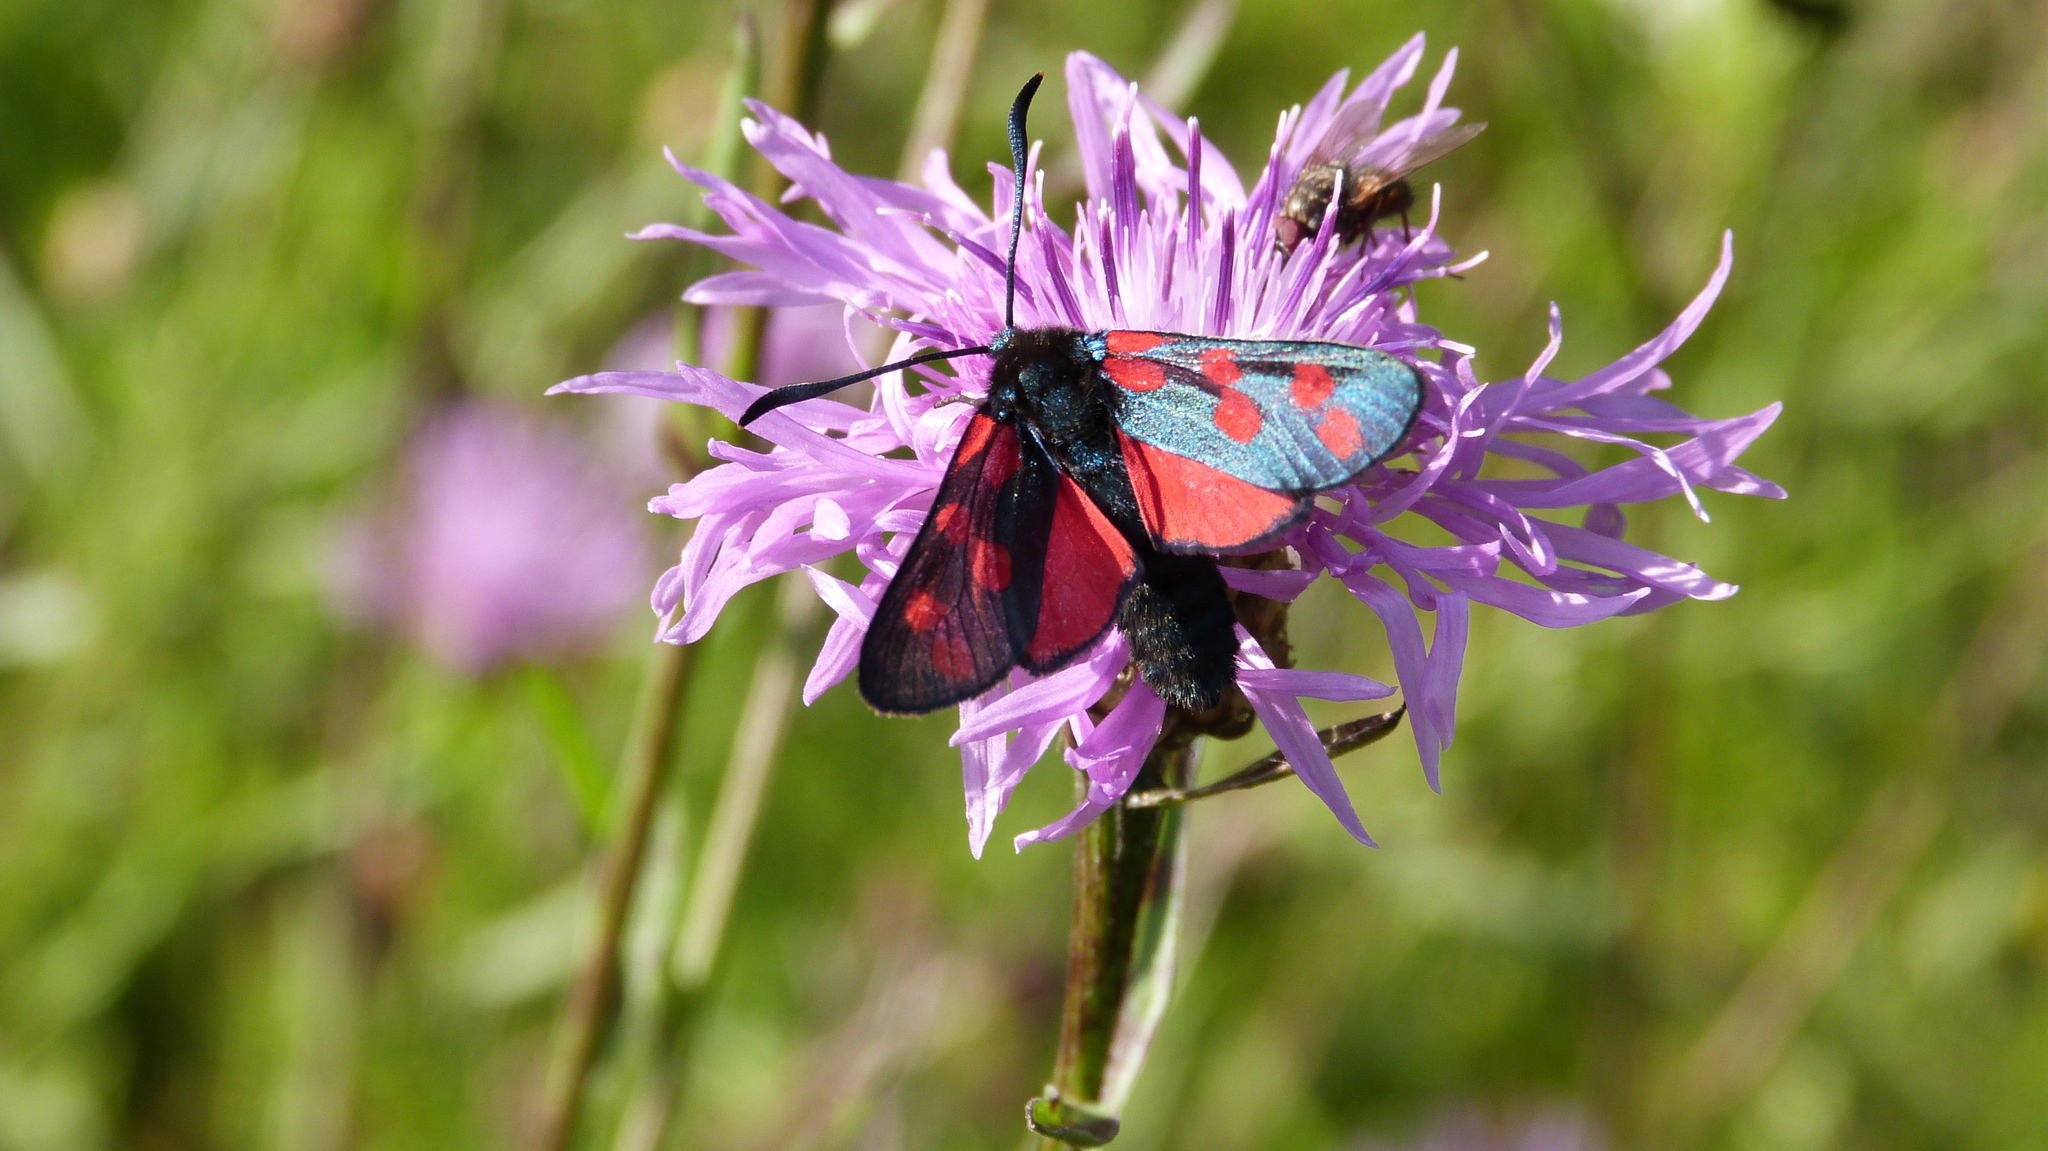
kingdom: Animalia
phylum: Arthropoda
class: Insecta
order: Lepidoptera
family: Zygaenidae
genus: Zygaena
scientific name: Zygaena filipendulae
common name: Six-spot burnet
